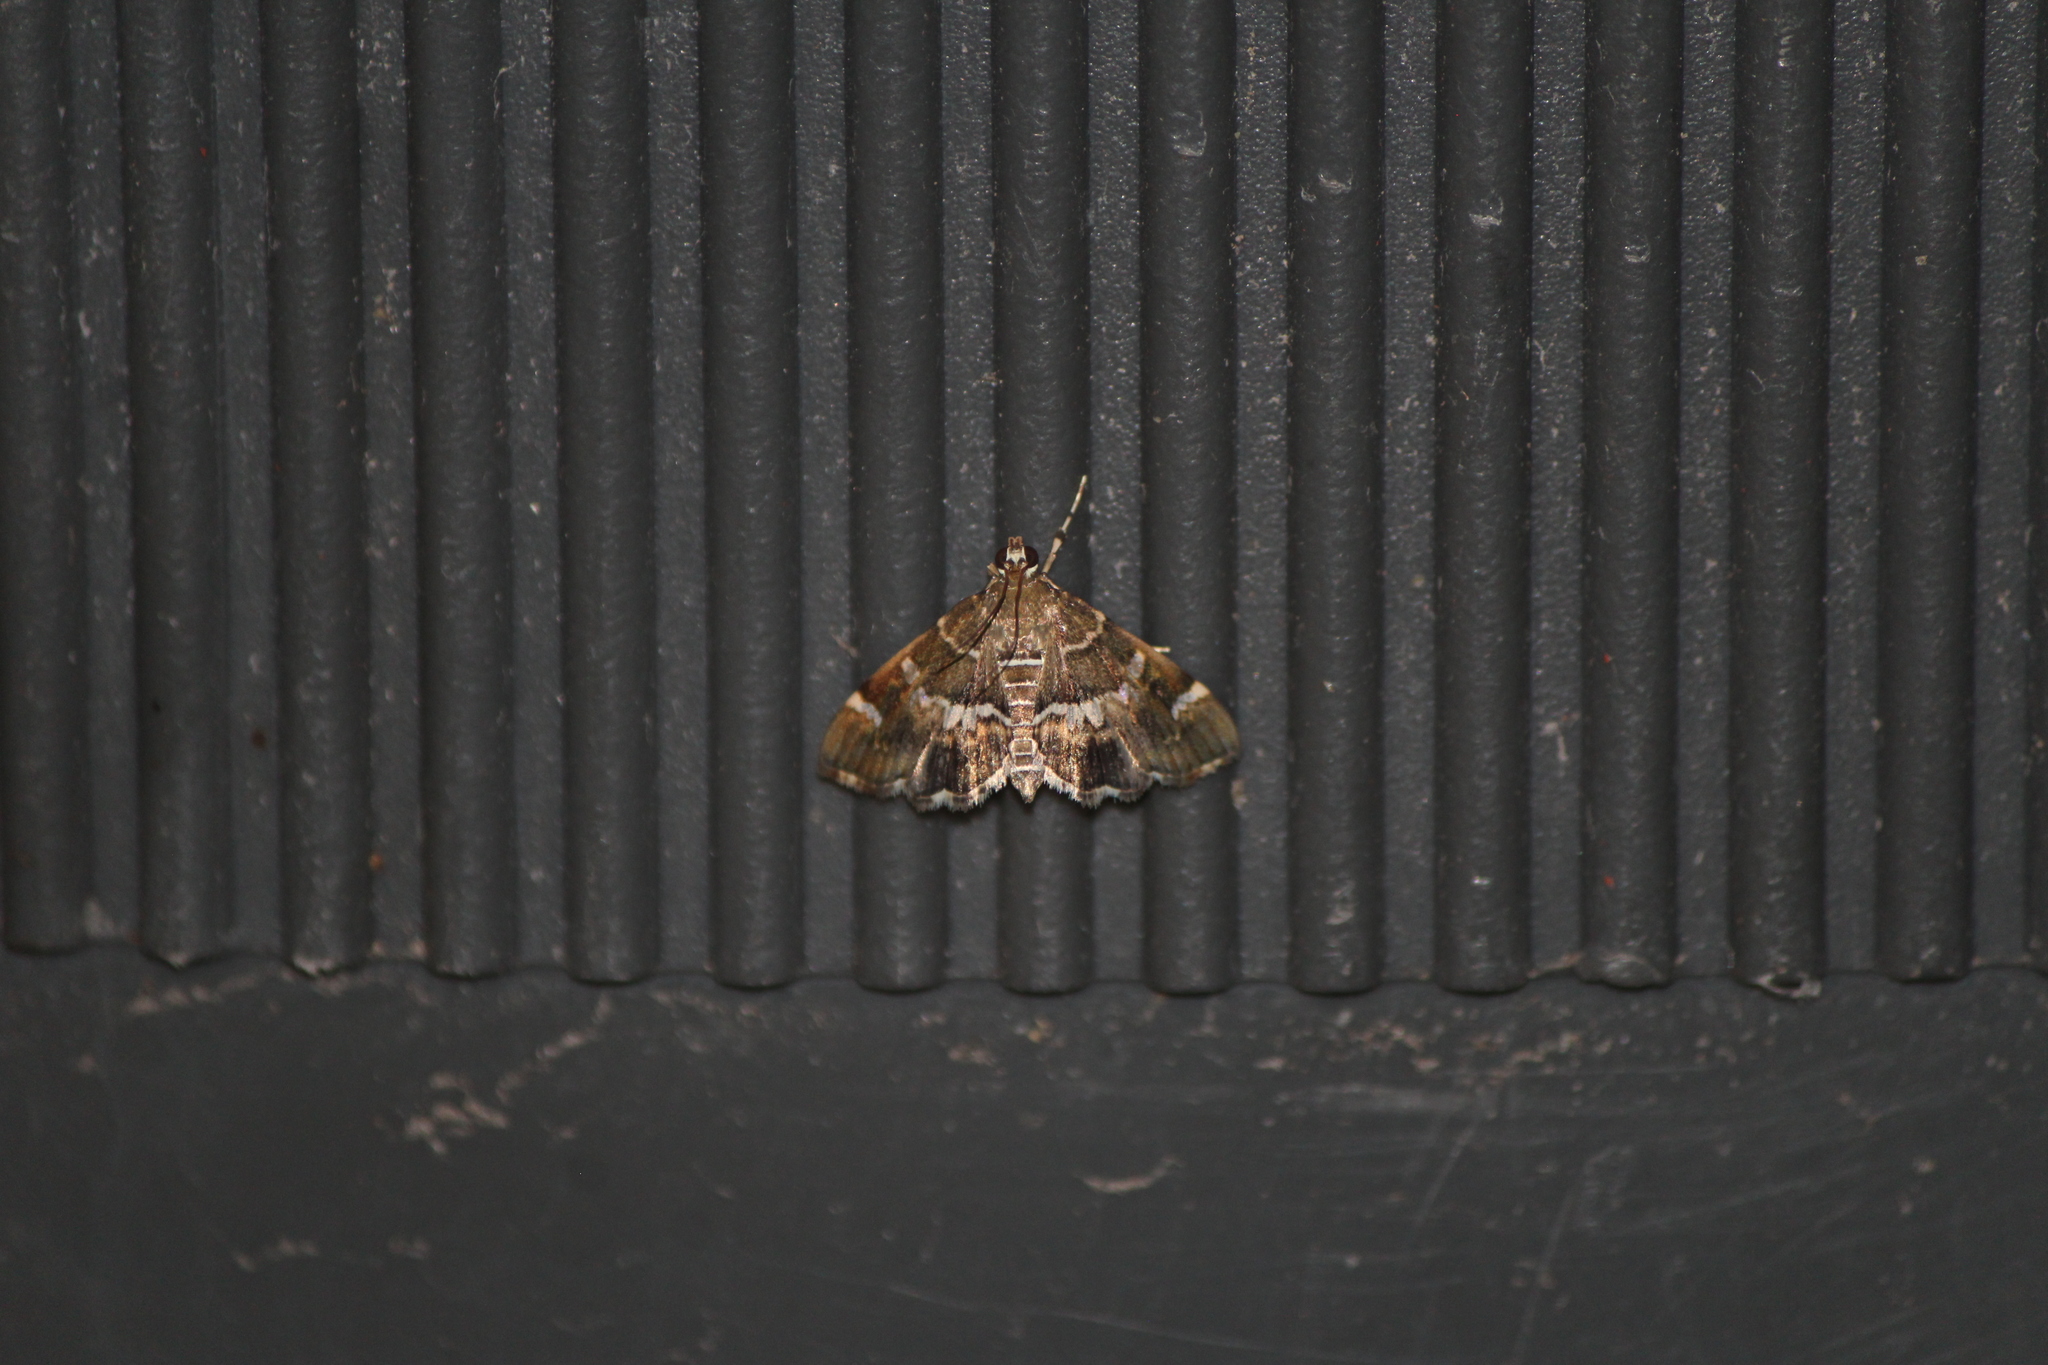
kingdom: Animalia
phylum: Arthropoda
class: Insecta
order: Lepidoptera
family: Crambidae
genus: Hymenia
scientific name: Hymenia perspectalis
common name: Spotted beet webworm
